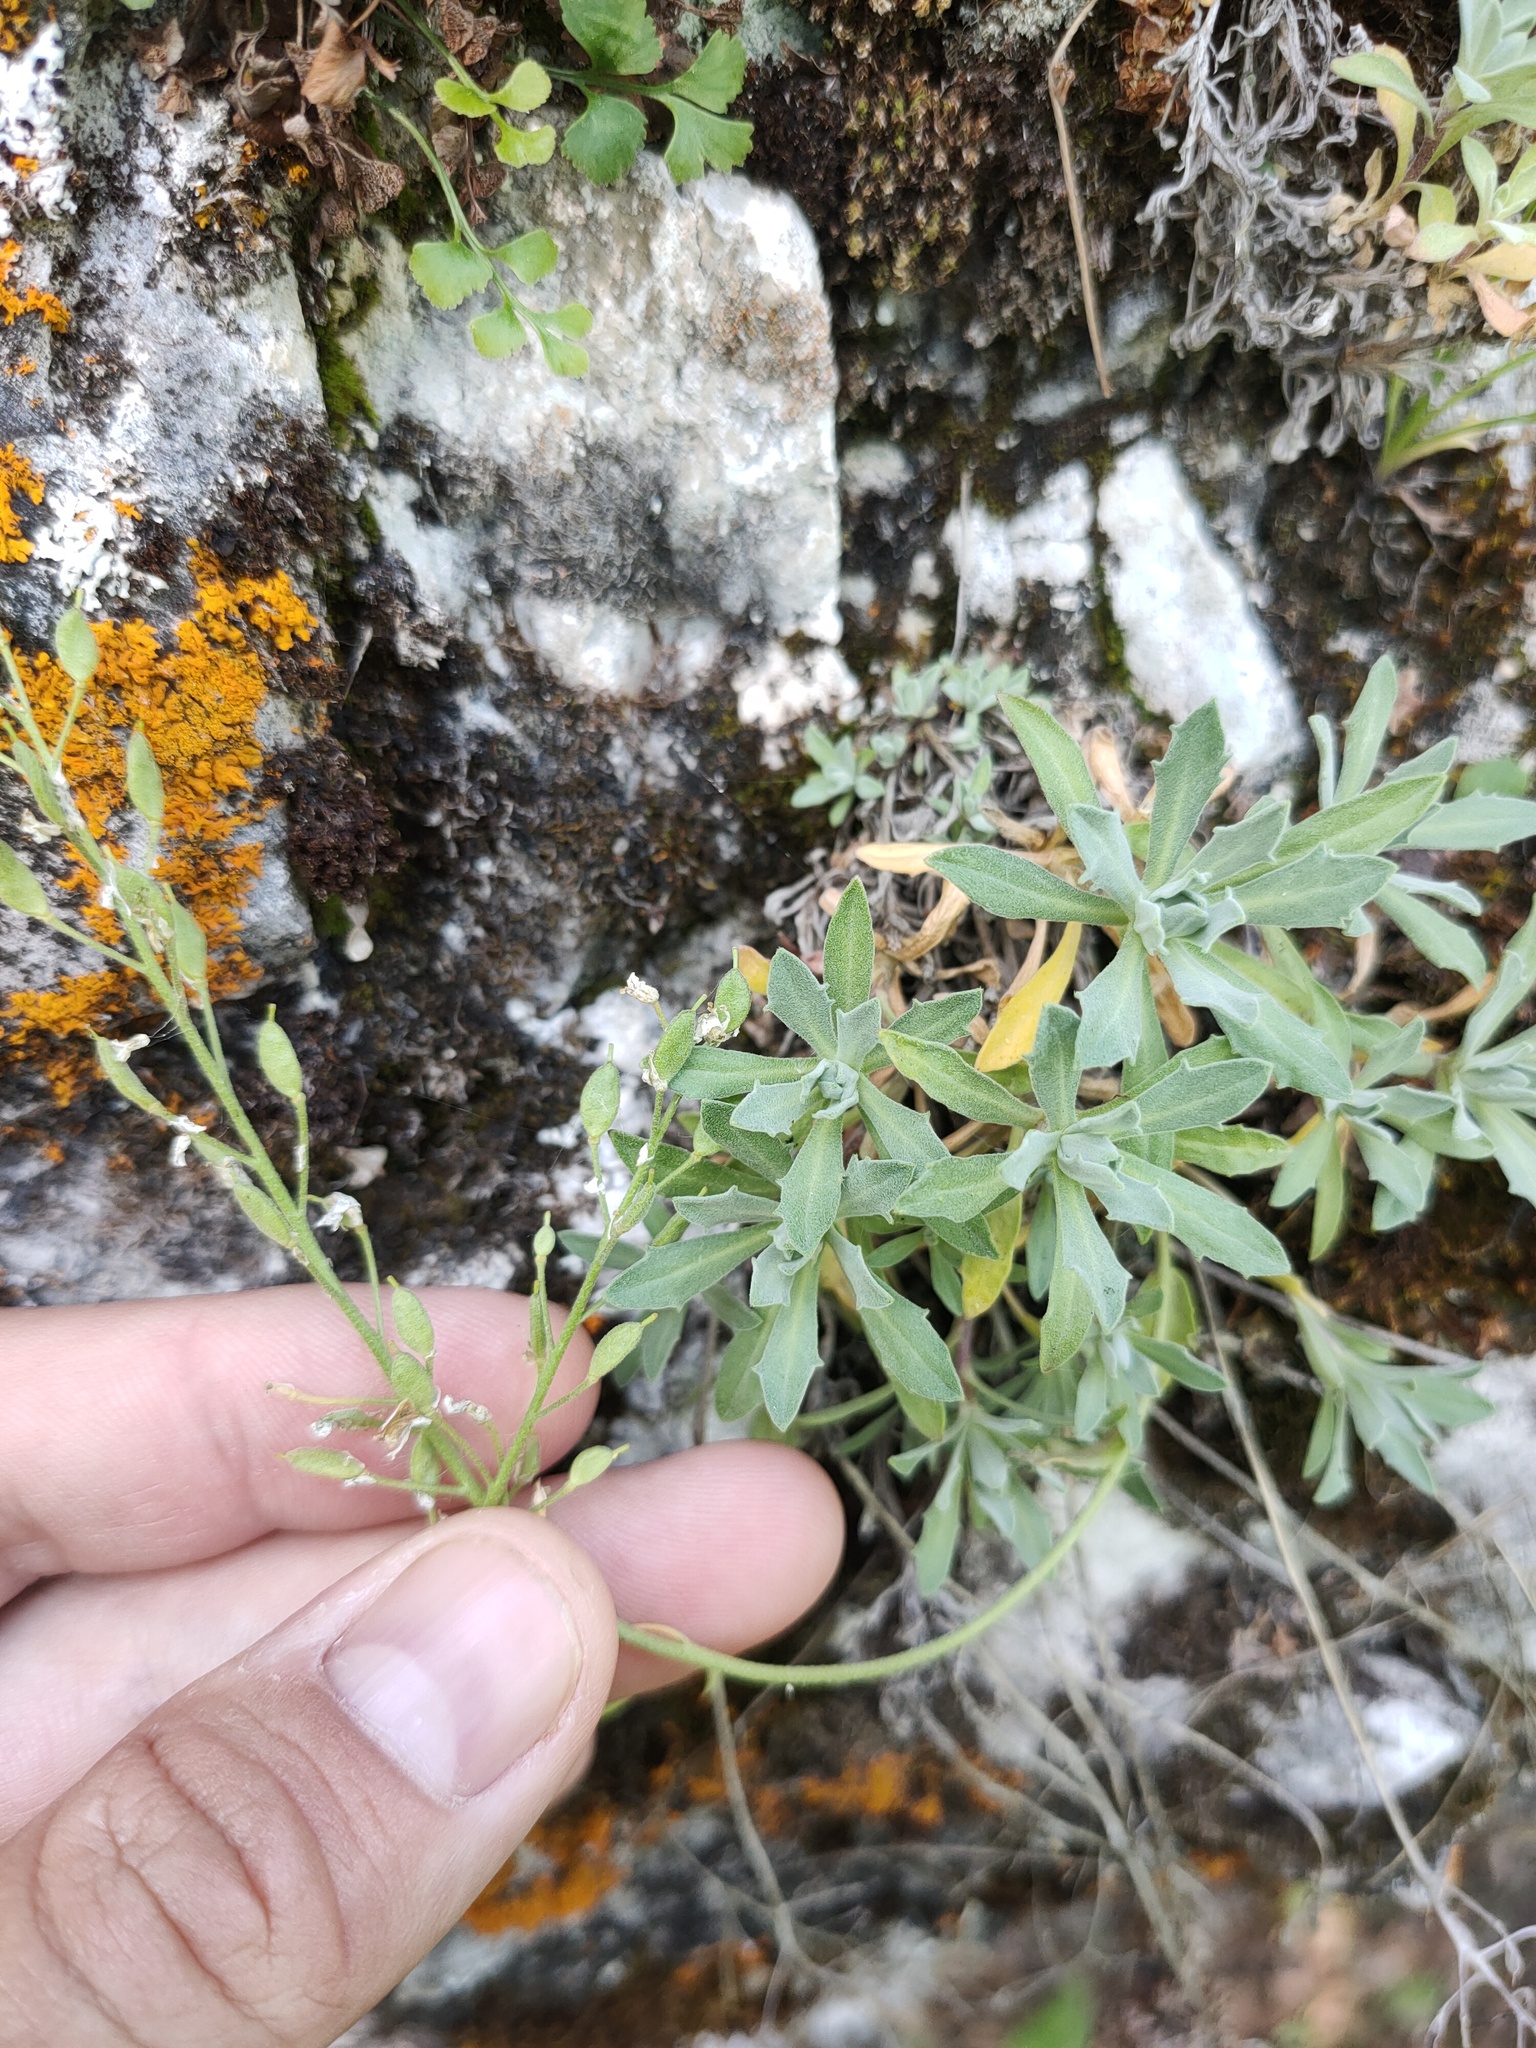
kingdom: Plantae
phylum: Tracheophyta
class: Magnoliopsida
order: Brassicales
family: Brassicaceae
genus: Draba
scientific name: Draba hyperborea
